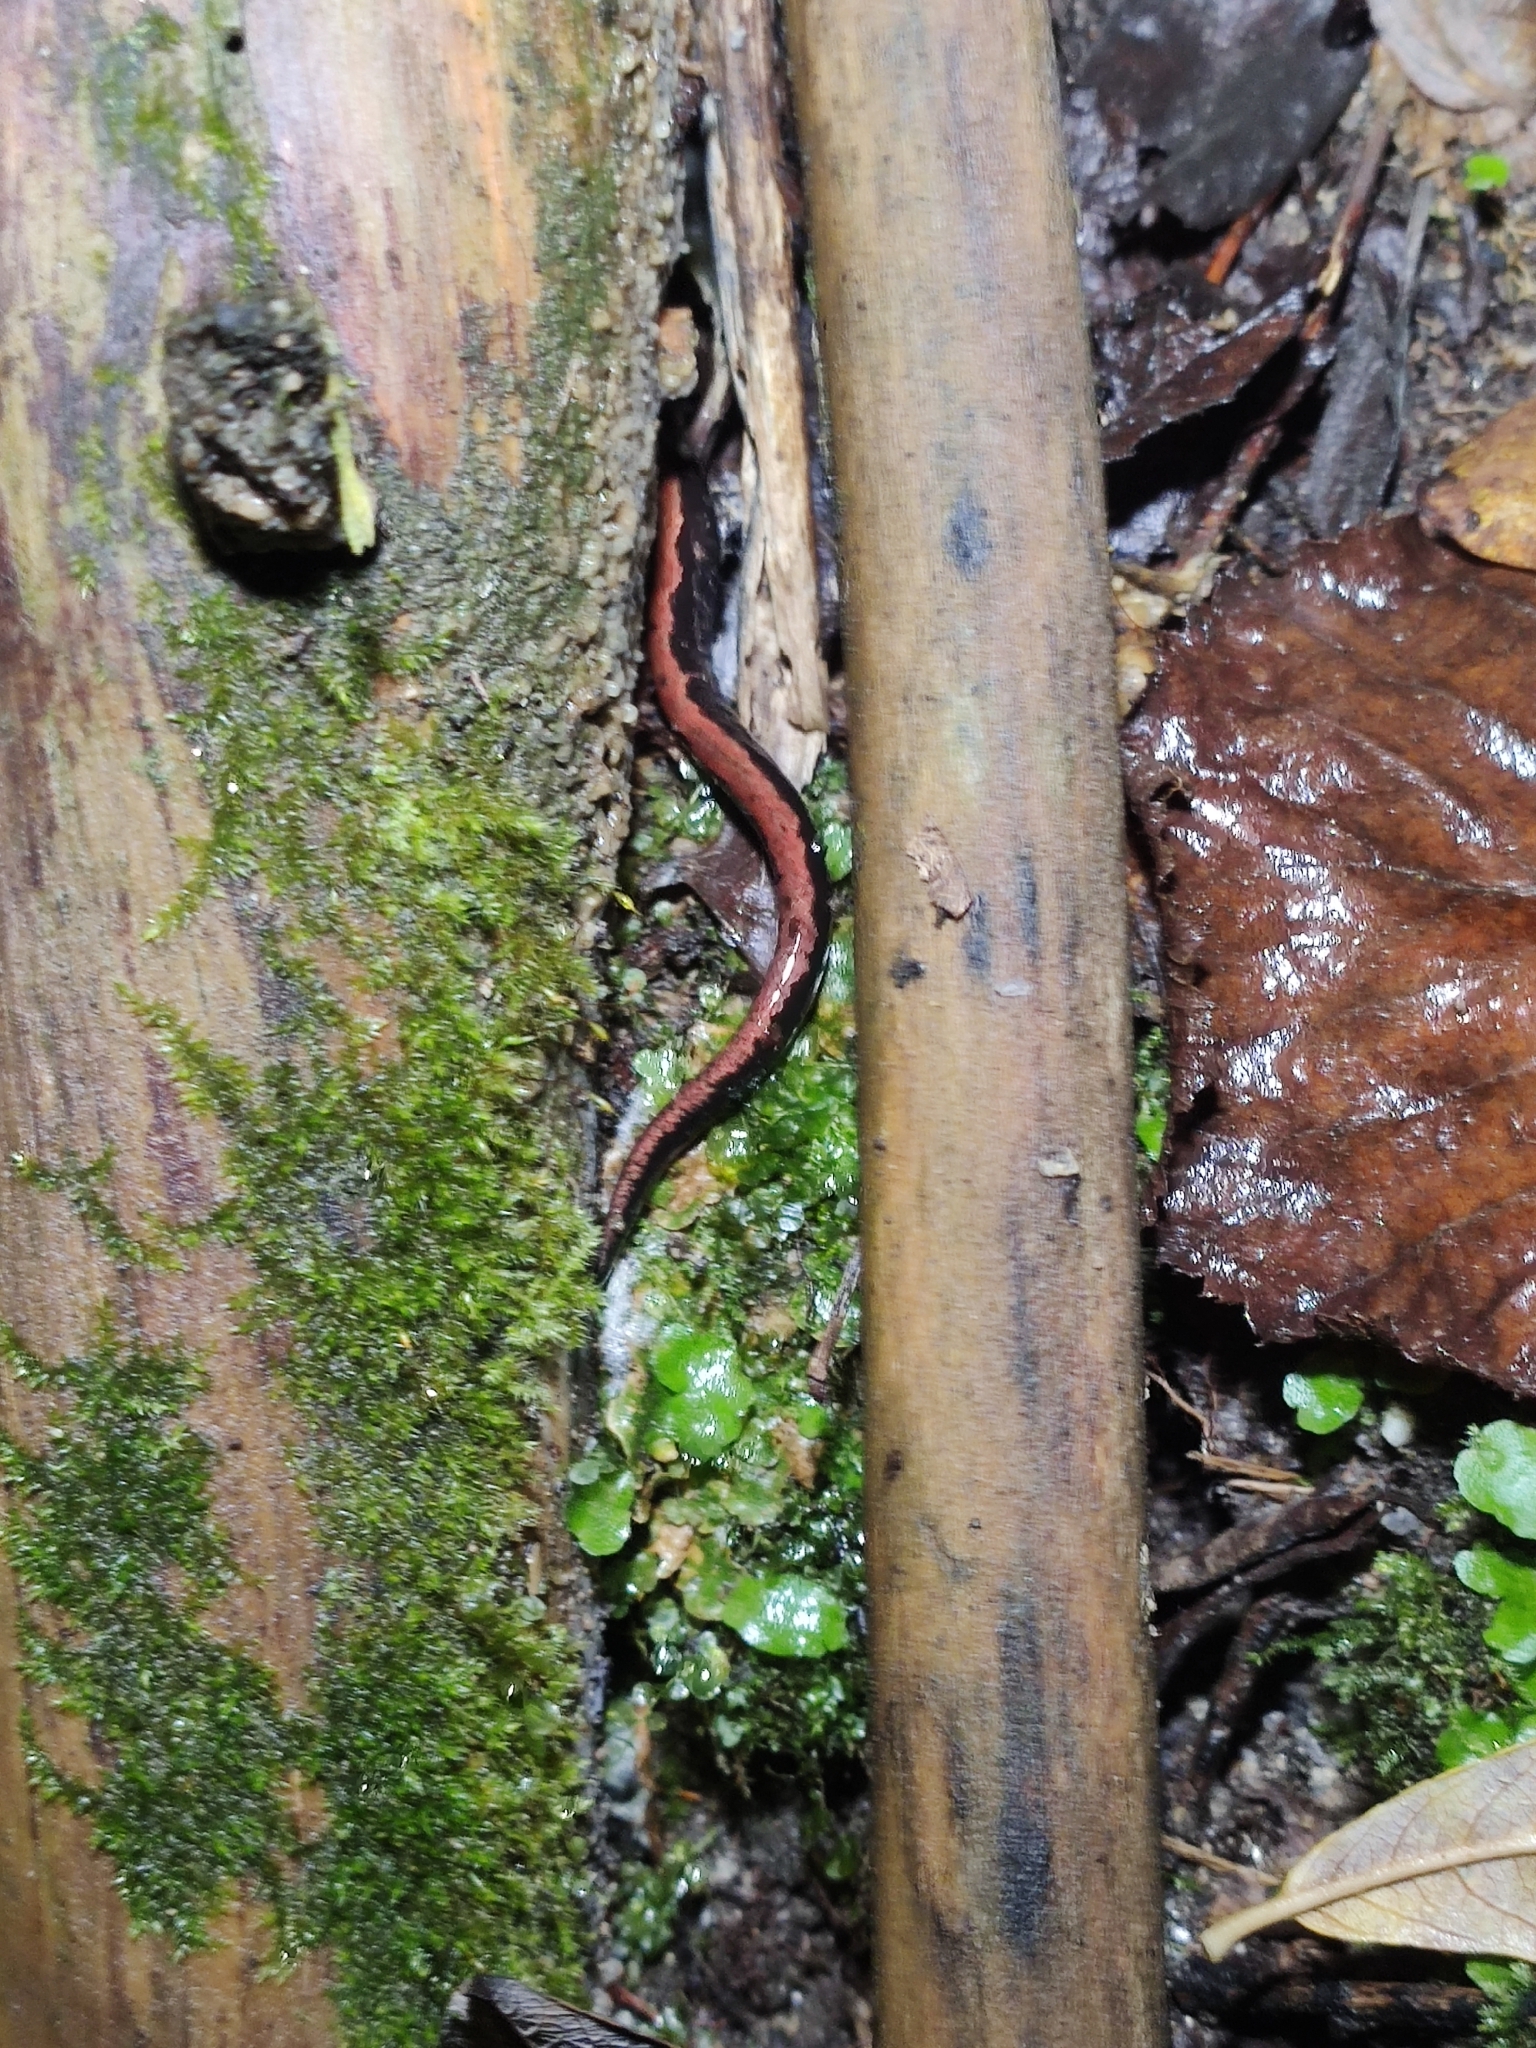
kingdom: Animalia
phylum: Chordata
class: Amphibia
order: Caudata
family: Salamandridae
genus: Chioglossa
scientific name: Chioglossa lusitanica
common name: Gold-striped salamander
